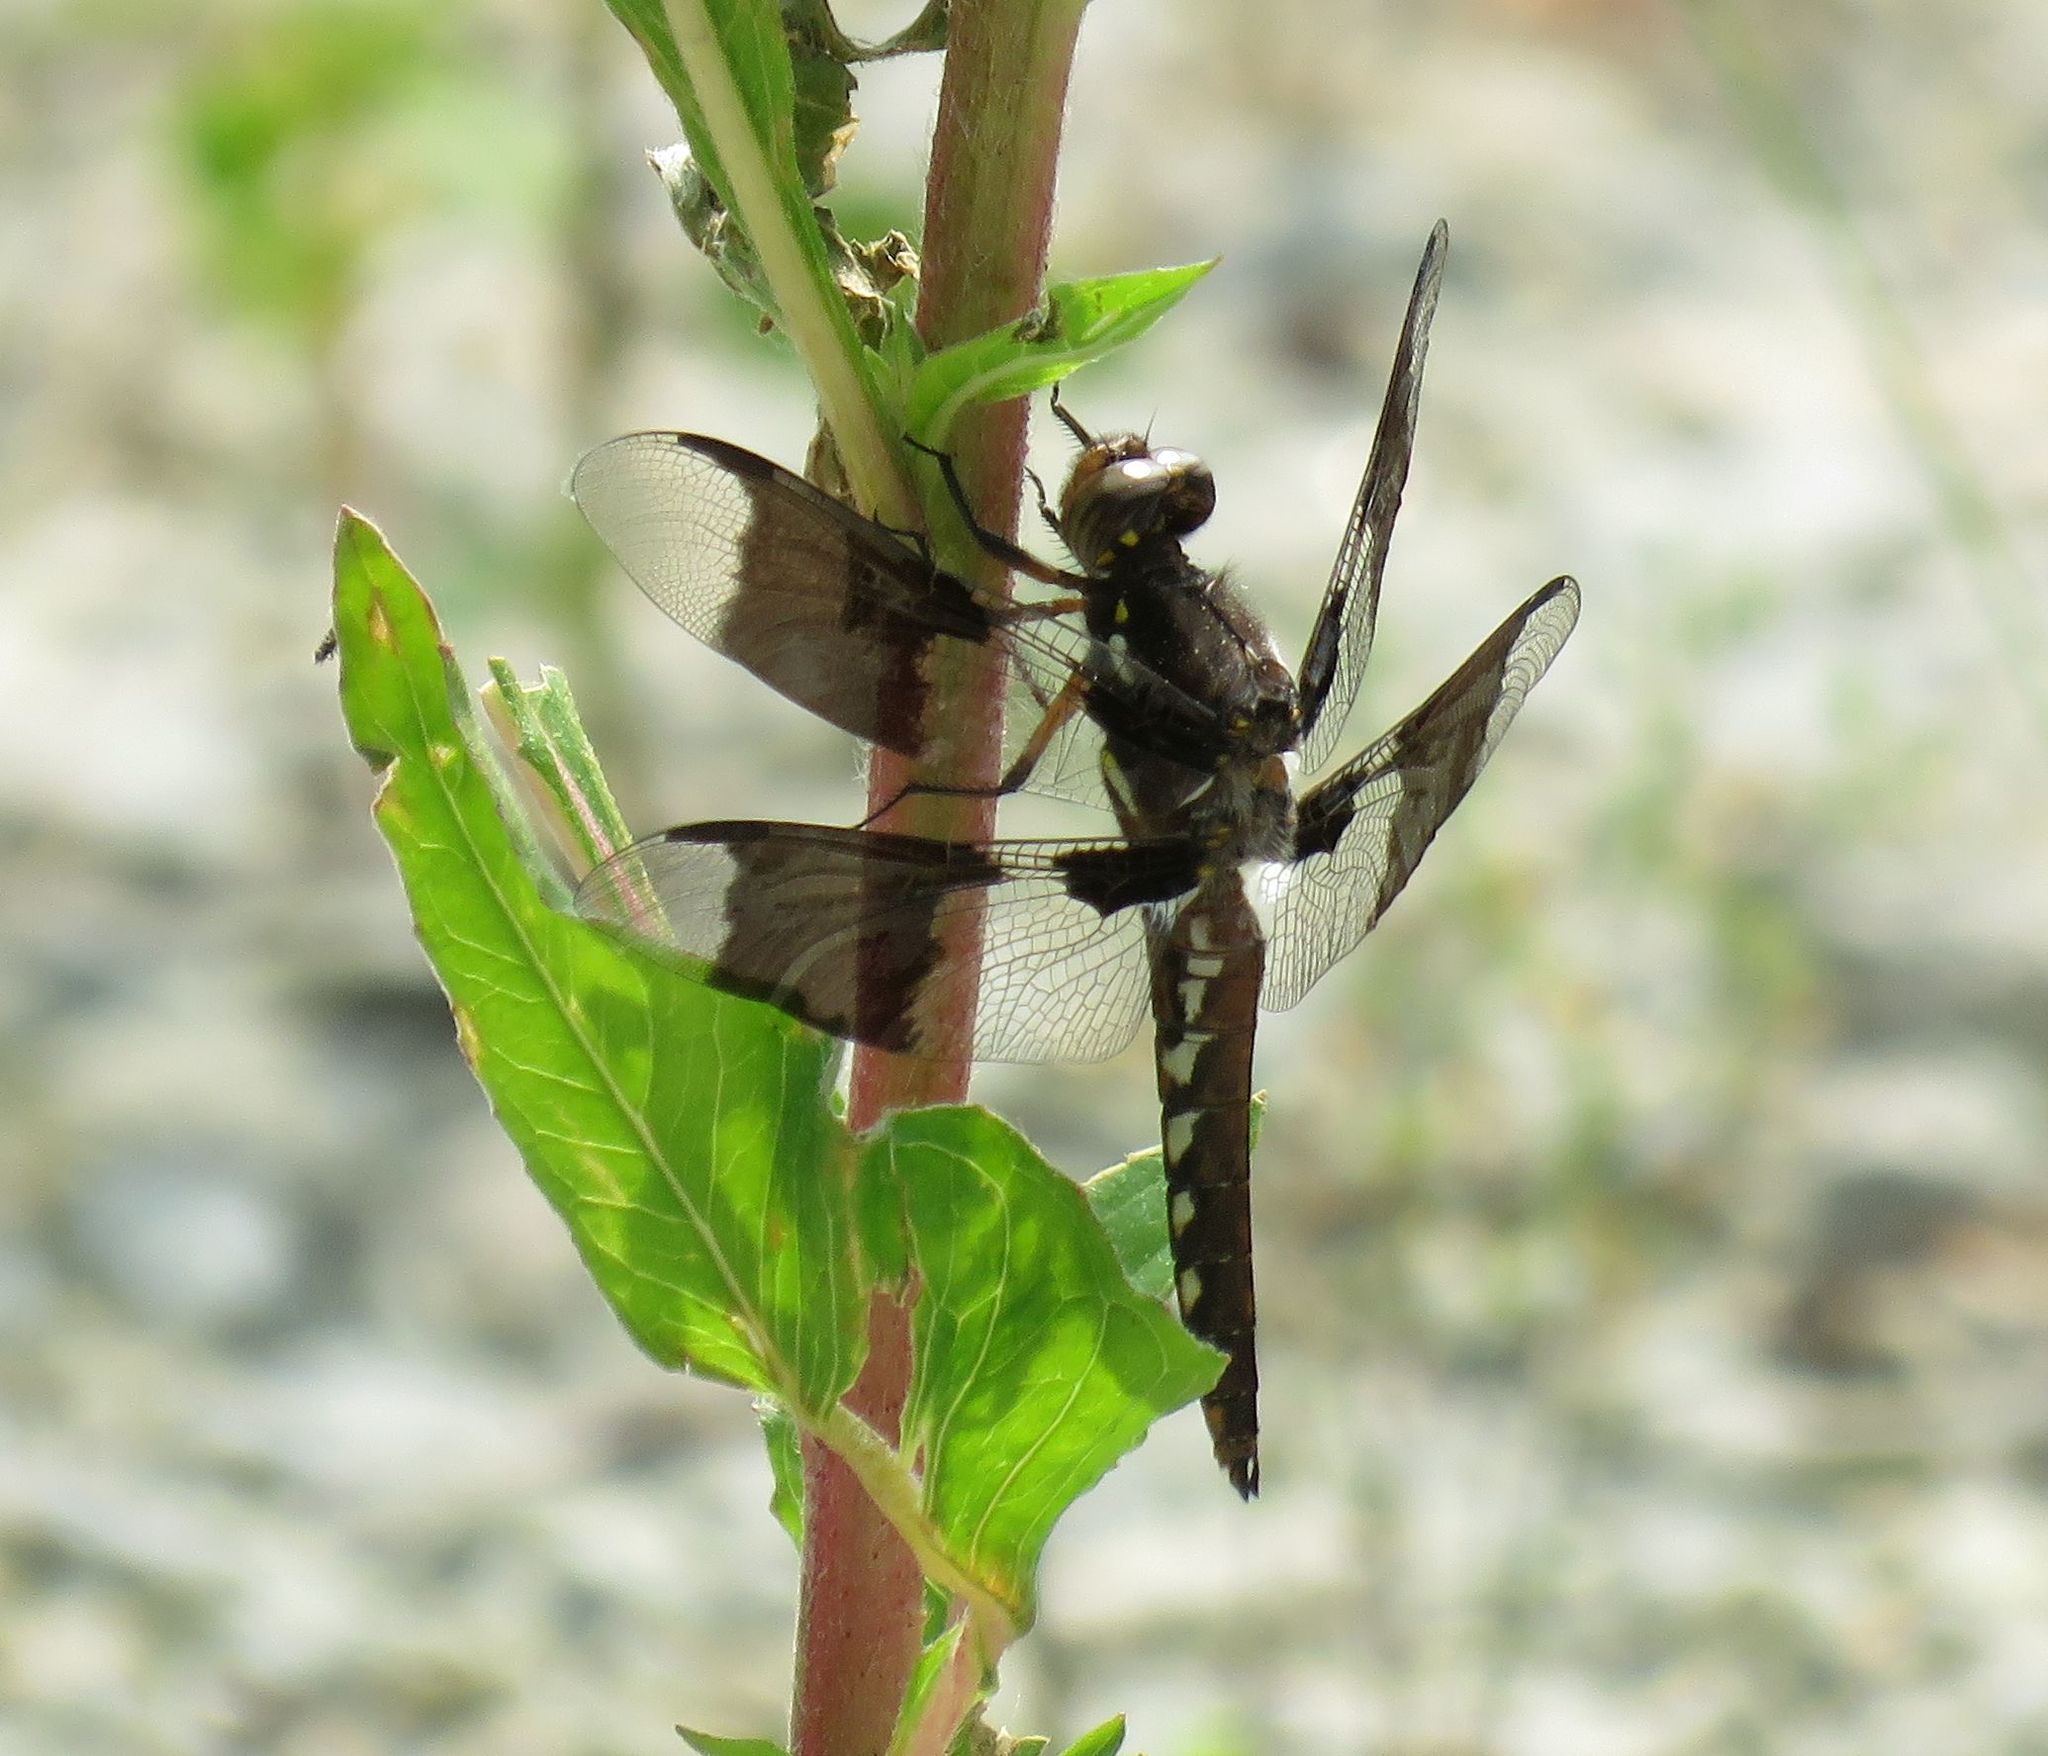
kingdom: Animalia
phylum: Arthropoda
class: Insecta
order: Odonata
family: Libellulidae
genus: Plathemis
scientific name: Plathemis lydia
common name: Common whitetail
